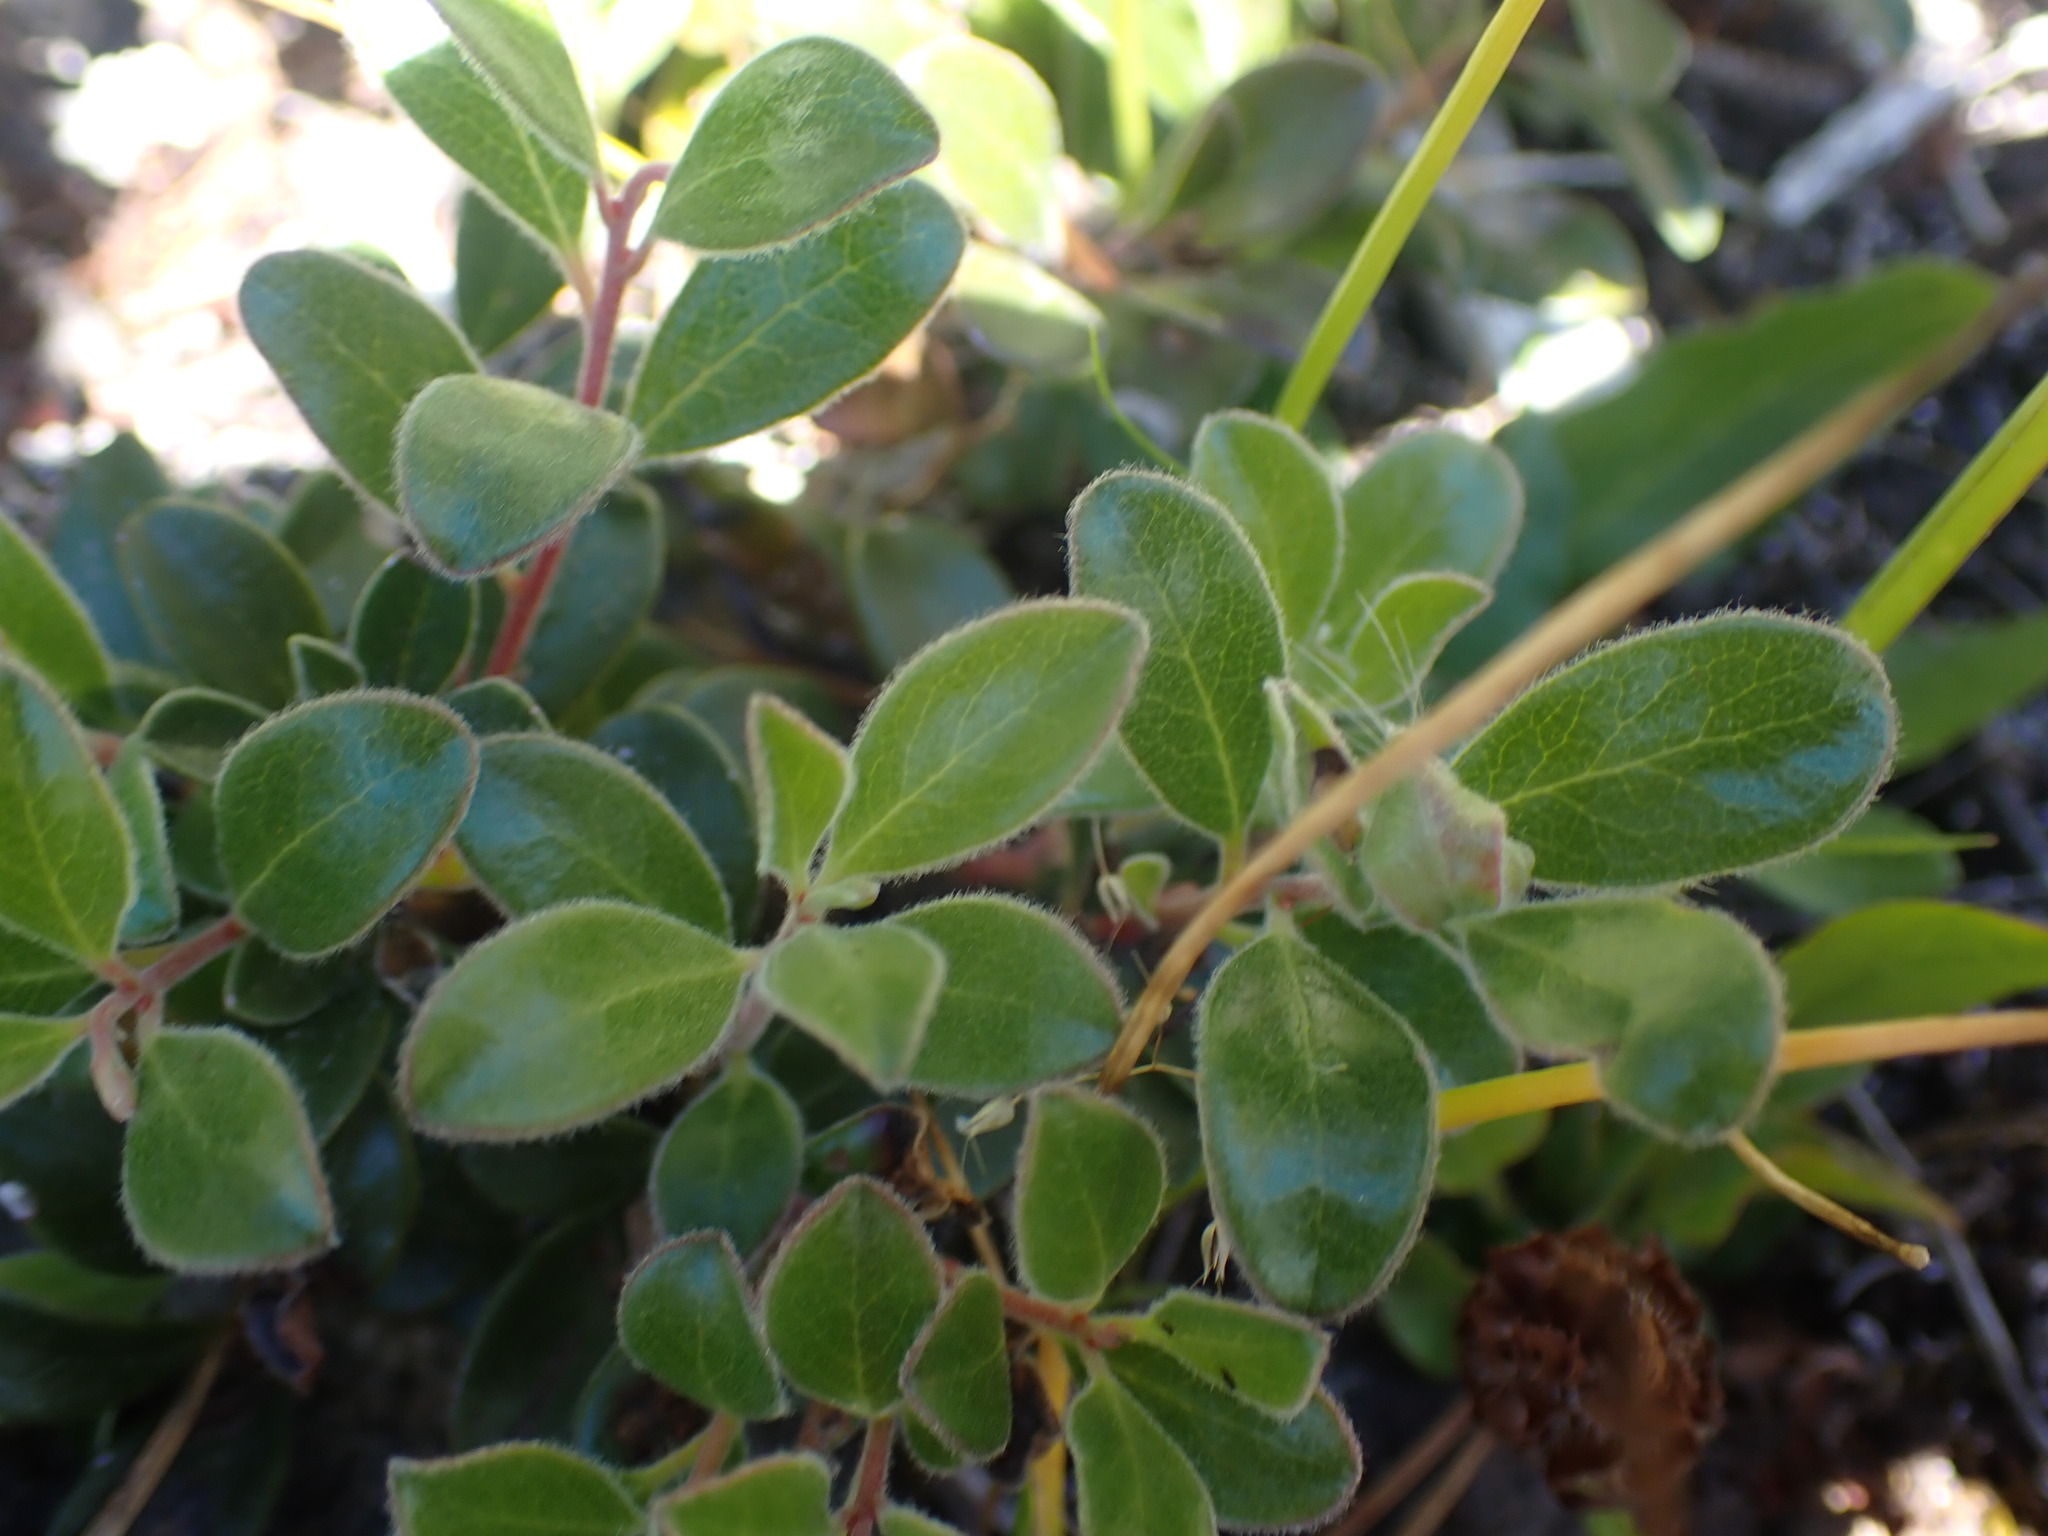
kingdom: Plantae
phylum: Tracheophyta
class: Magnoliopsida
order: Ericales
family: Ericaceae
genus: Arctostaphylos
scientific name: Arctostaphylos uva-ursi
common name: Bearberry
